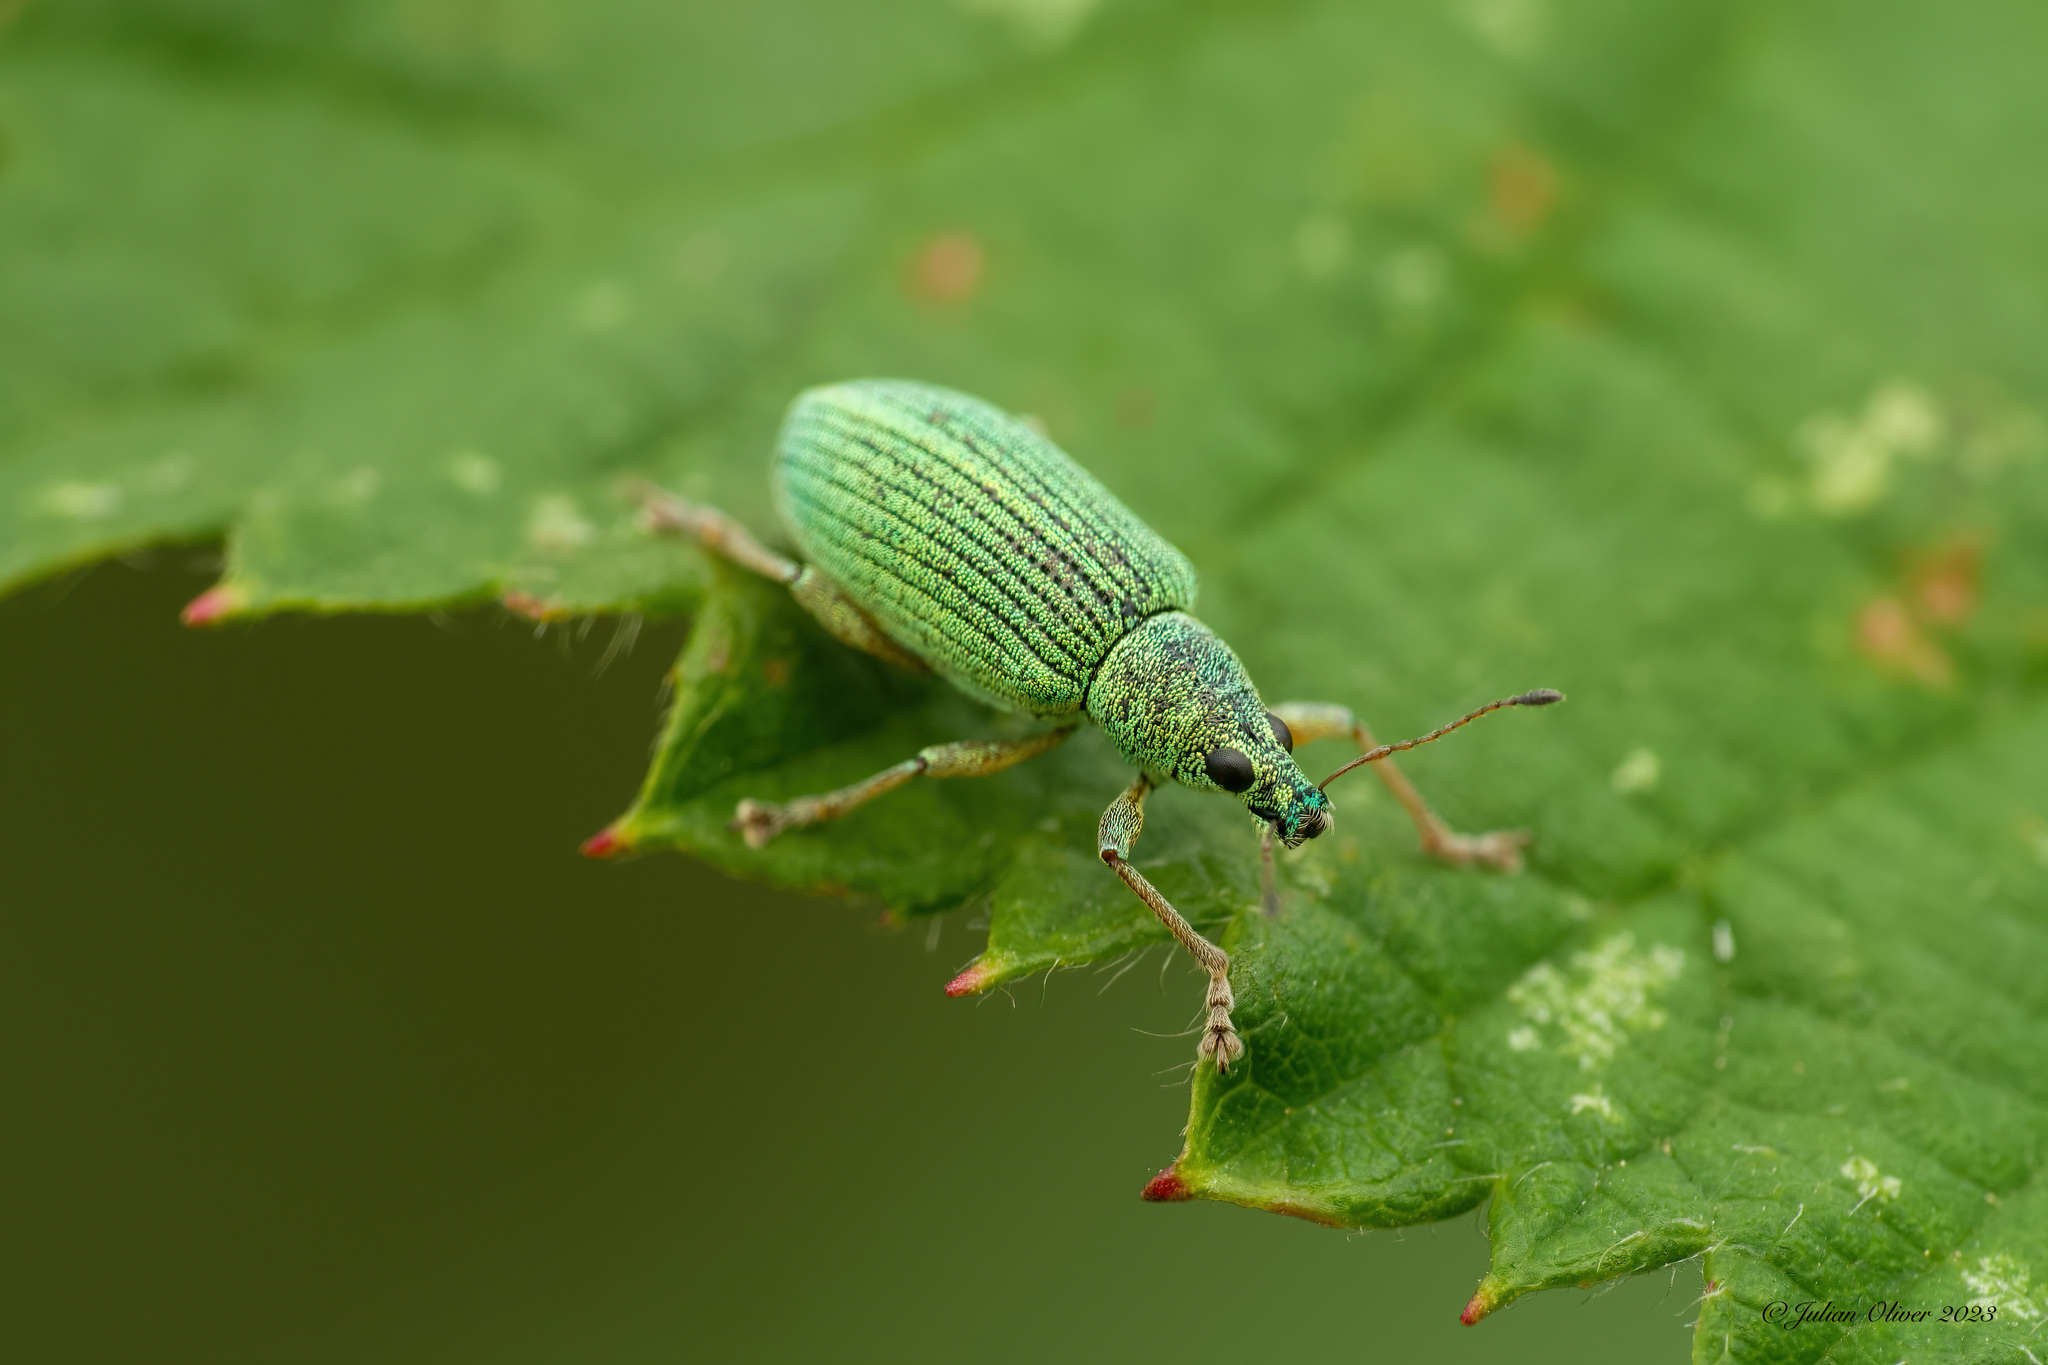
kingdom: Animalia
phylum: Arthropoda
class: Insecta
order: Coleoptera
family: Curculionidae
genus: Polydrusus
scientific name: Polydrusus formosus
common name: Weevil
